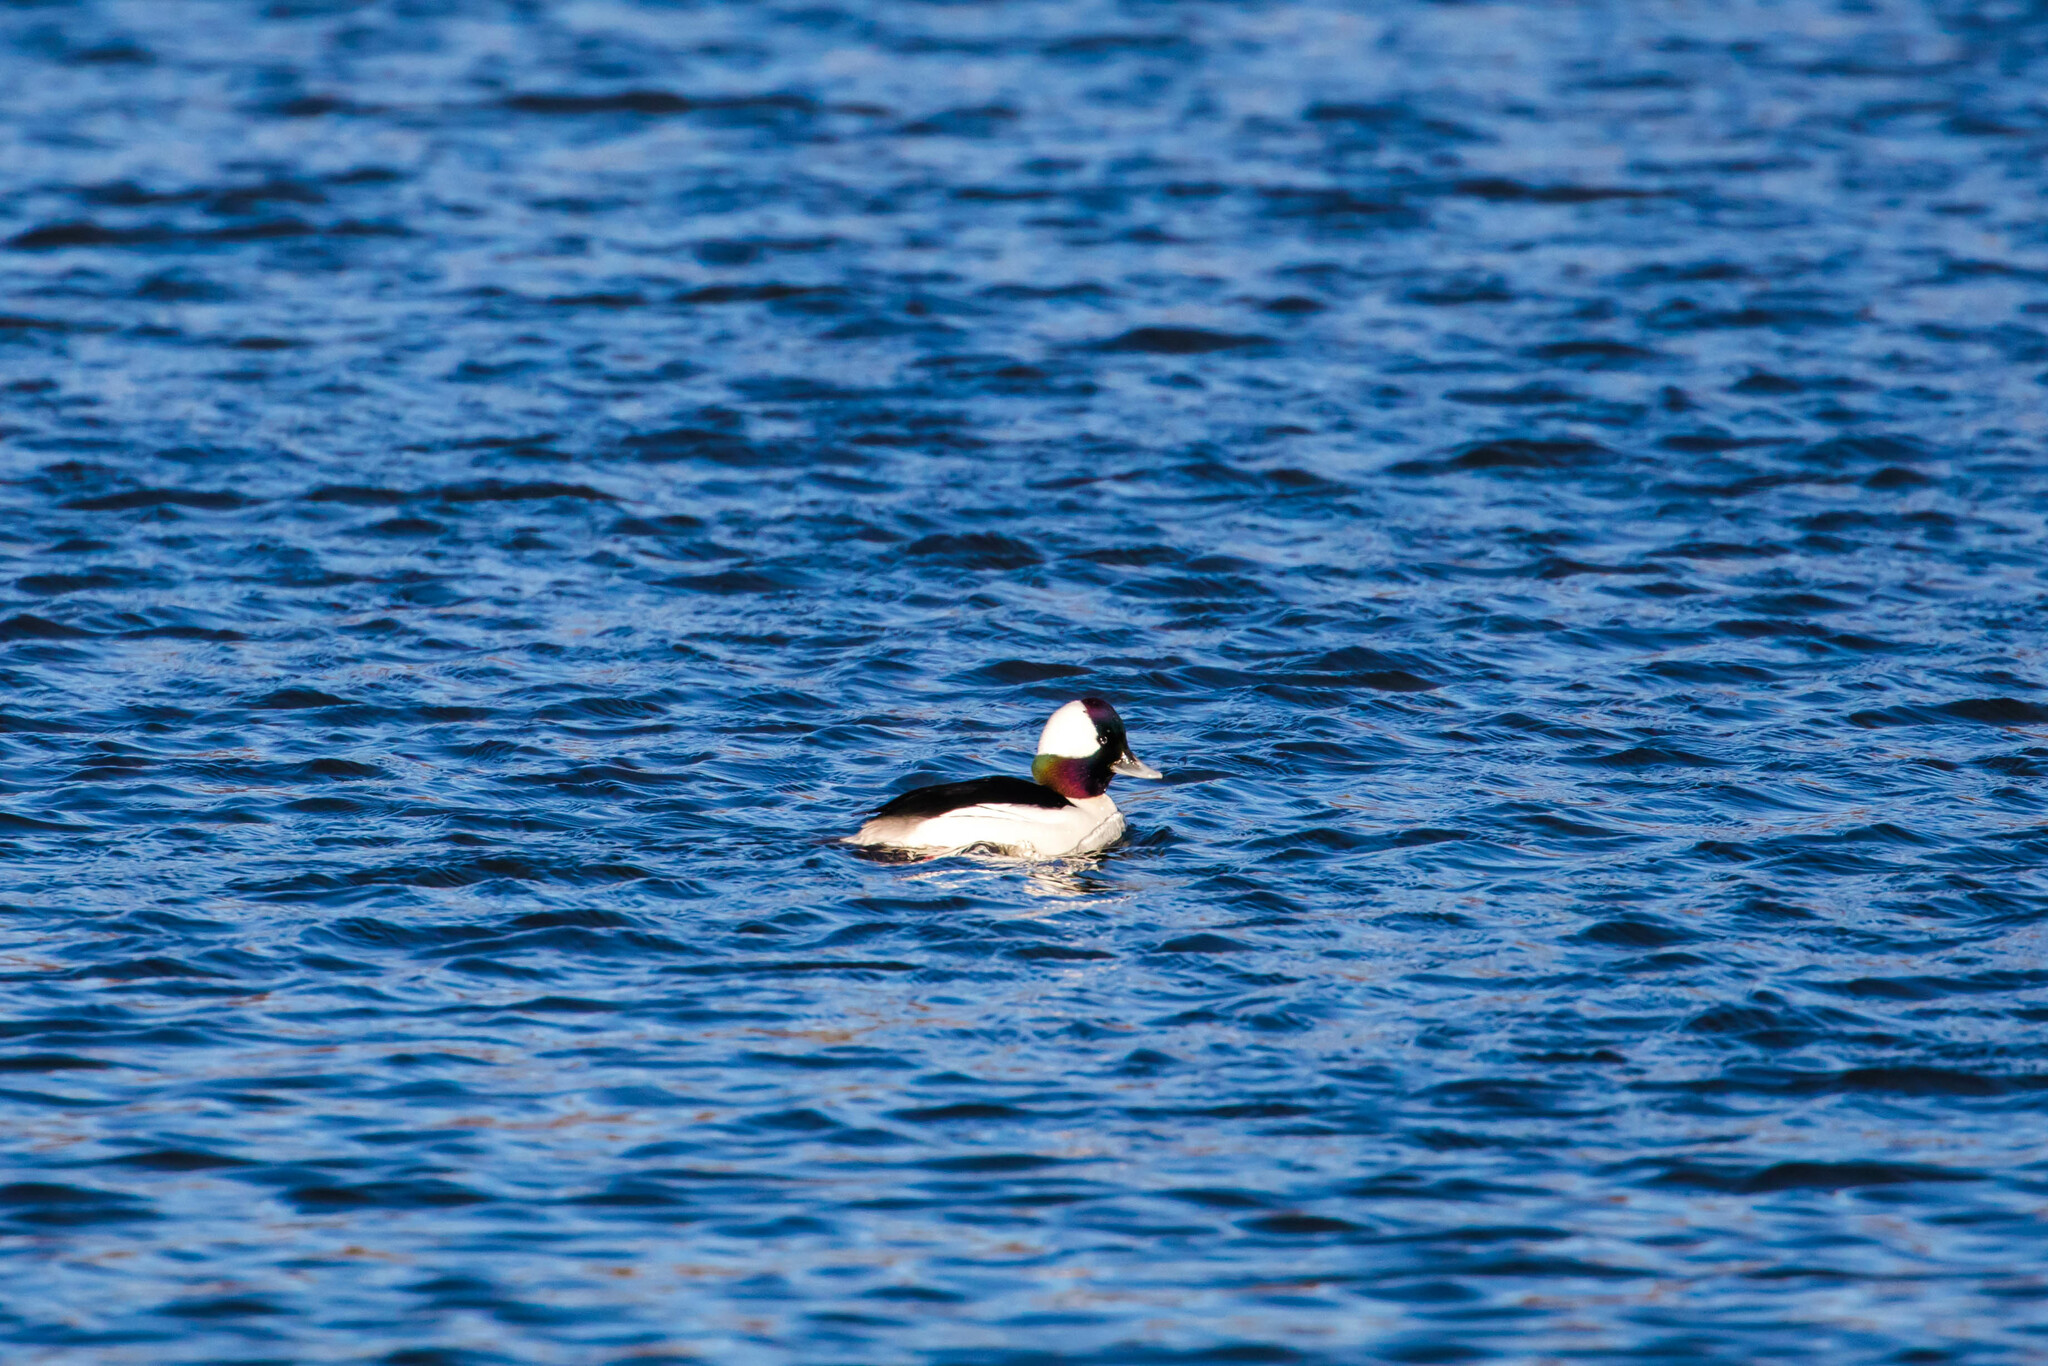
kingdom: Animalia
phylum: Chordata
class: Aves
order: Anseriformes
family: Anatidae
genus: Bucephala
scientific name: Bucephala albeola
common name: Bufflehead
